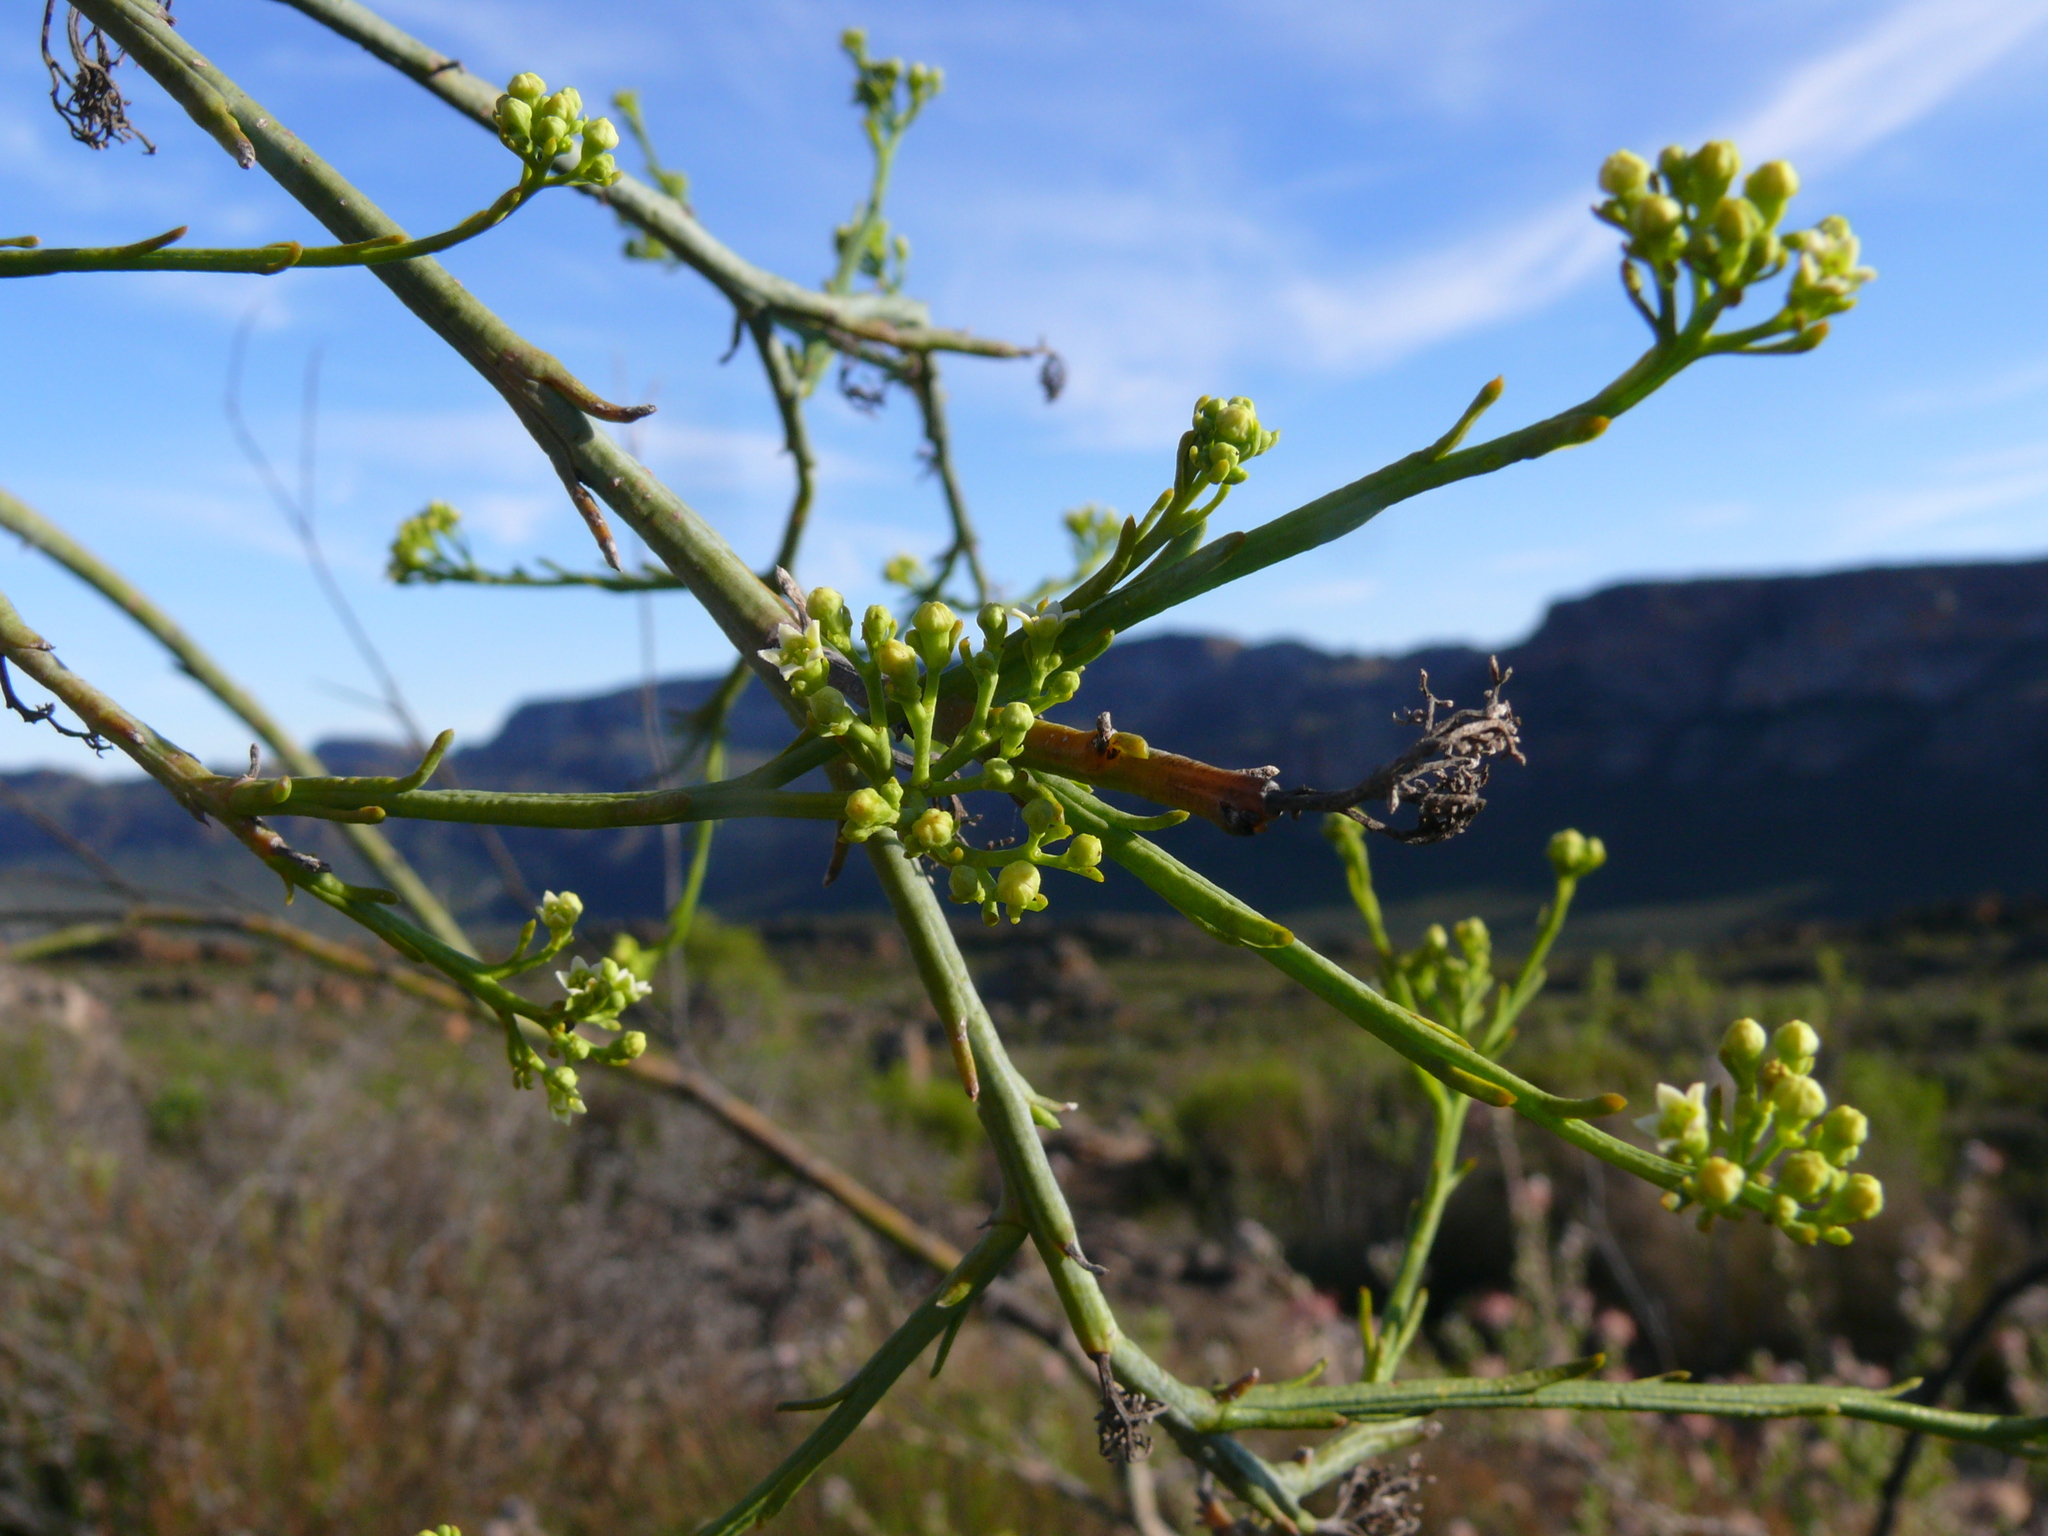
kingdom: Plantae
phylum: Tracheophyta
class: Magnoliopsida
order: Santalales
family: Thesiaceae
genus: Thesium
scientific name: Thesium strictum
